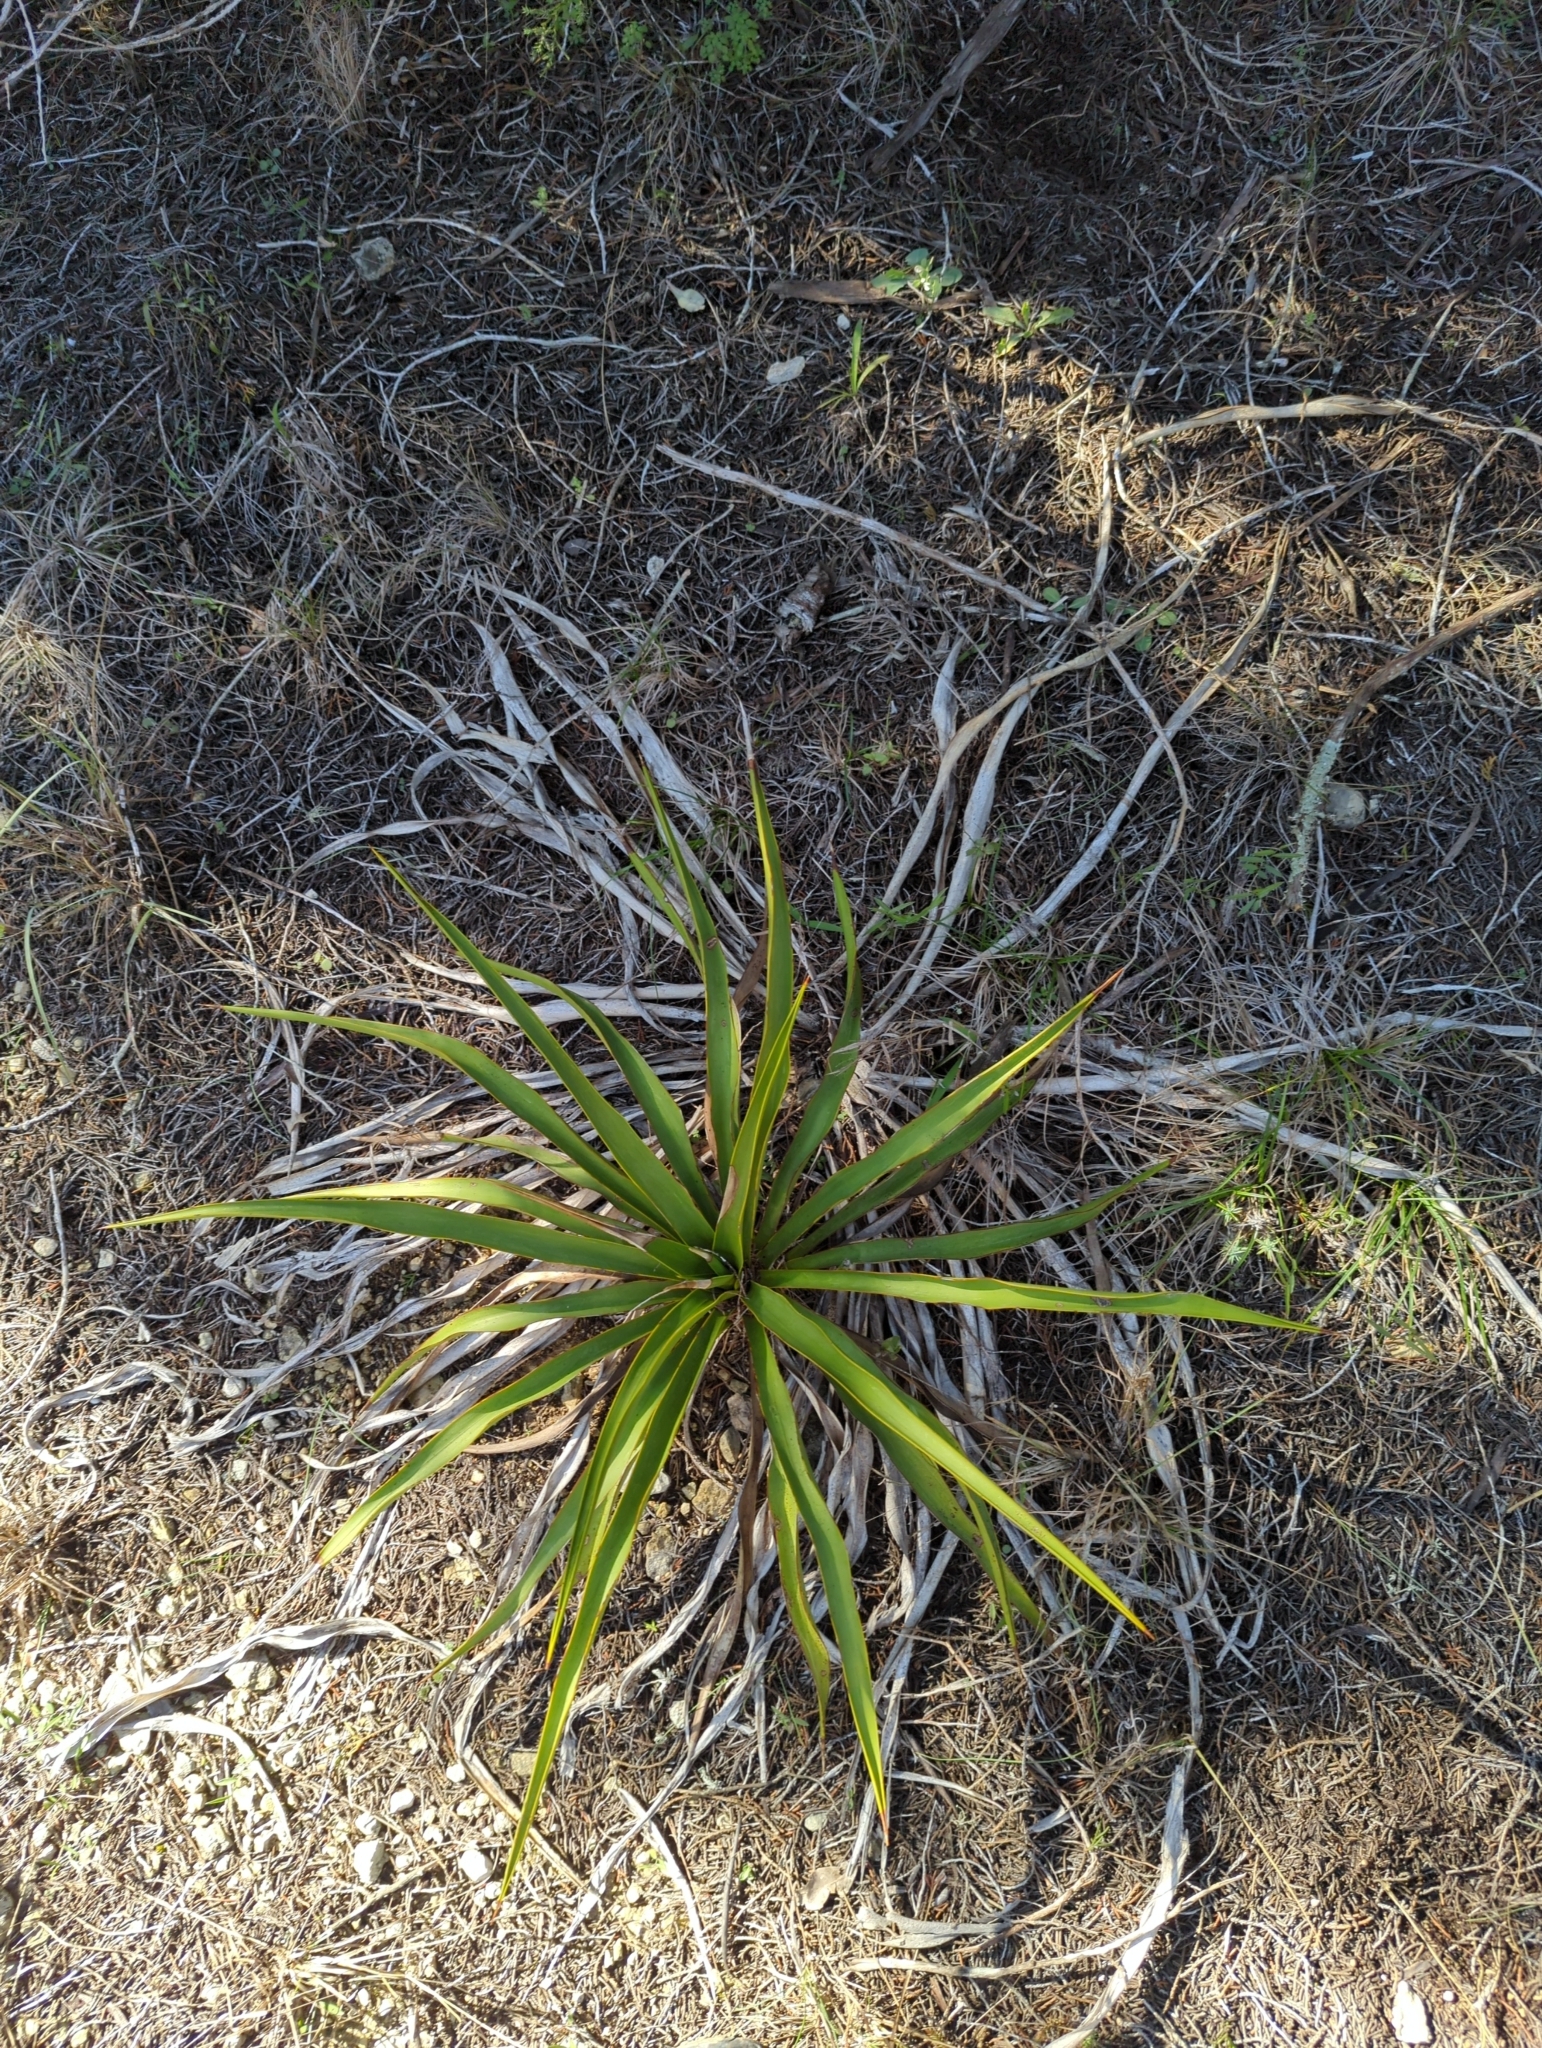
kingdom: Plantae
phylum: Tracheophyta
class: Liliopsida
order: Asparagales
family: Asparagaceae
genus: Yucca
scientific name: Yucca rupicola
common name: Twisted-leaf spanish-dagger
